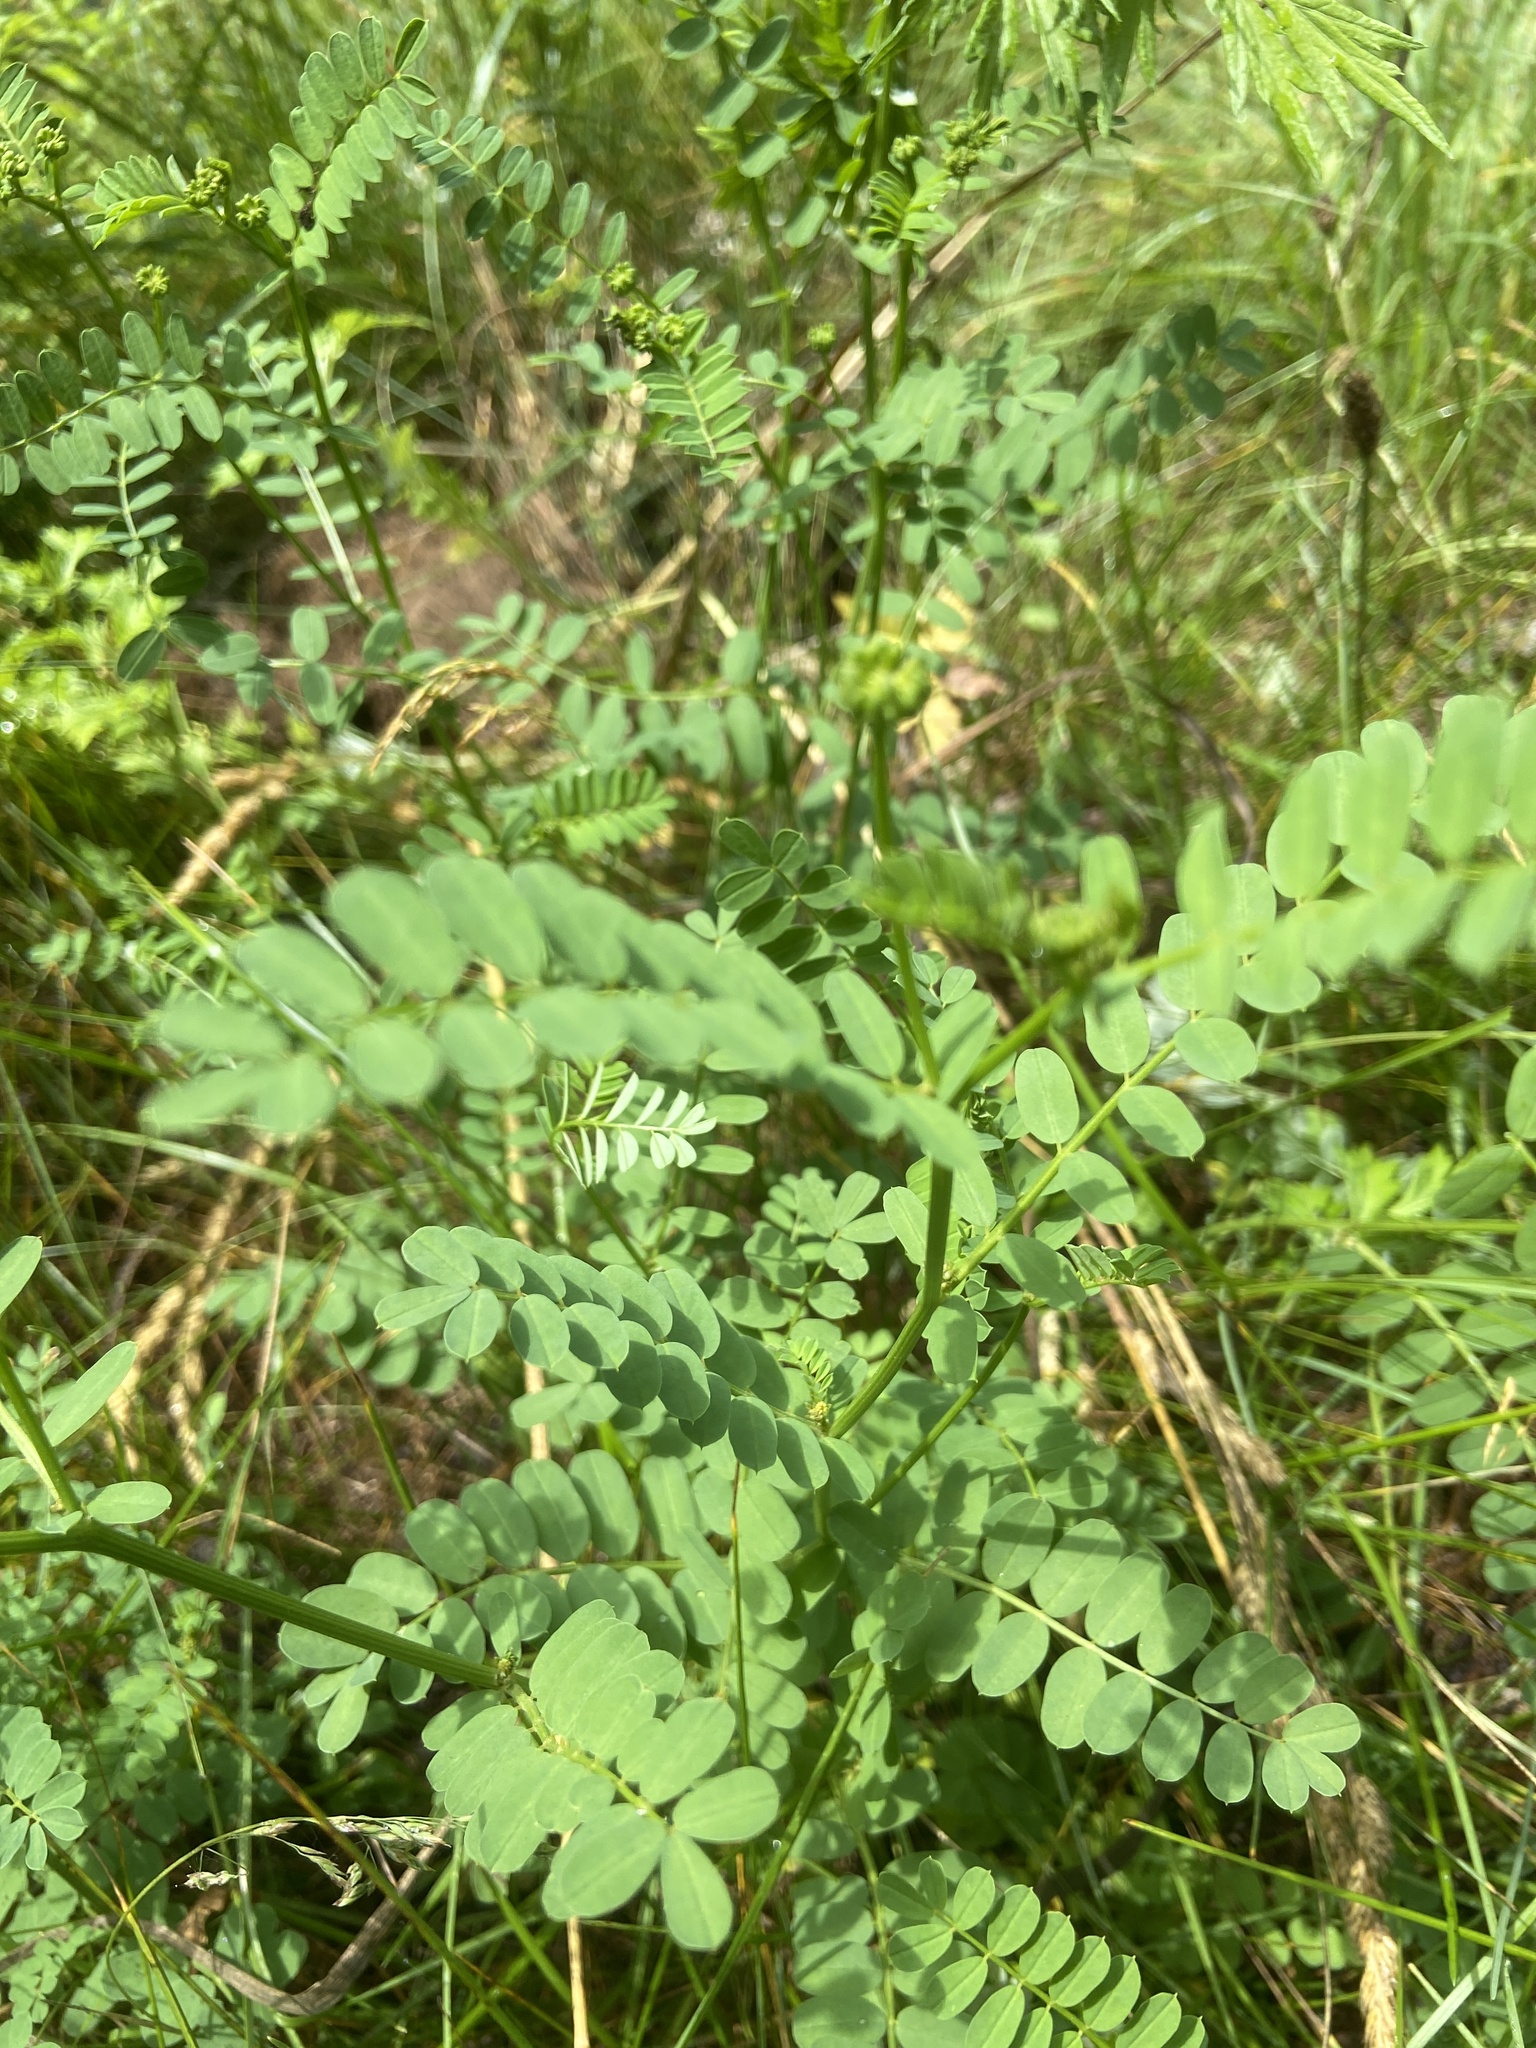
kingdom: Plantae
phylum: Tracheophyta
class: Magnoliopsida
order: Fabales
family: Fabaceae
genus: Coronilla
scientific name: Coronilla varia
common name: Crownvetch
